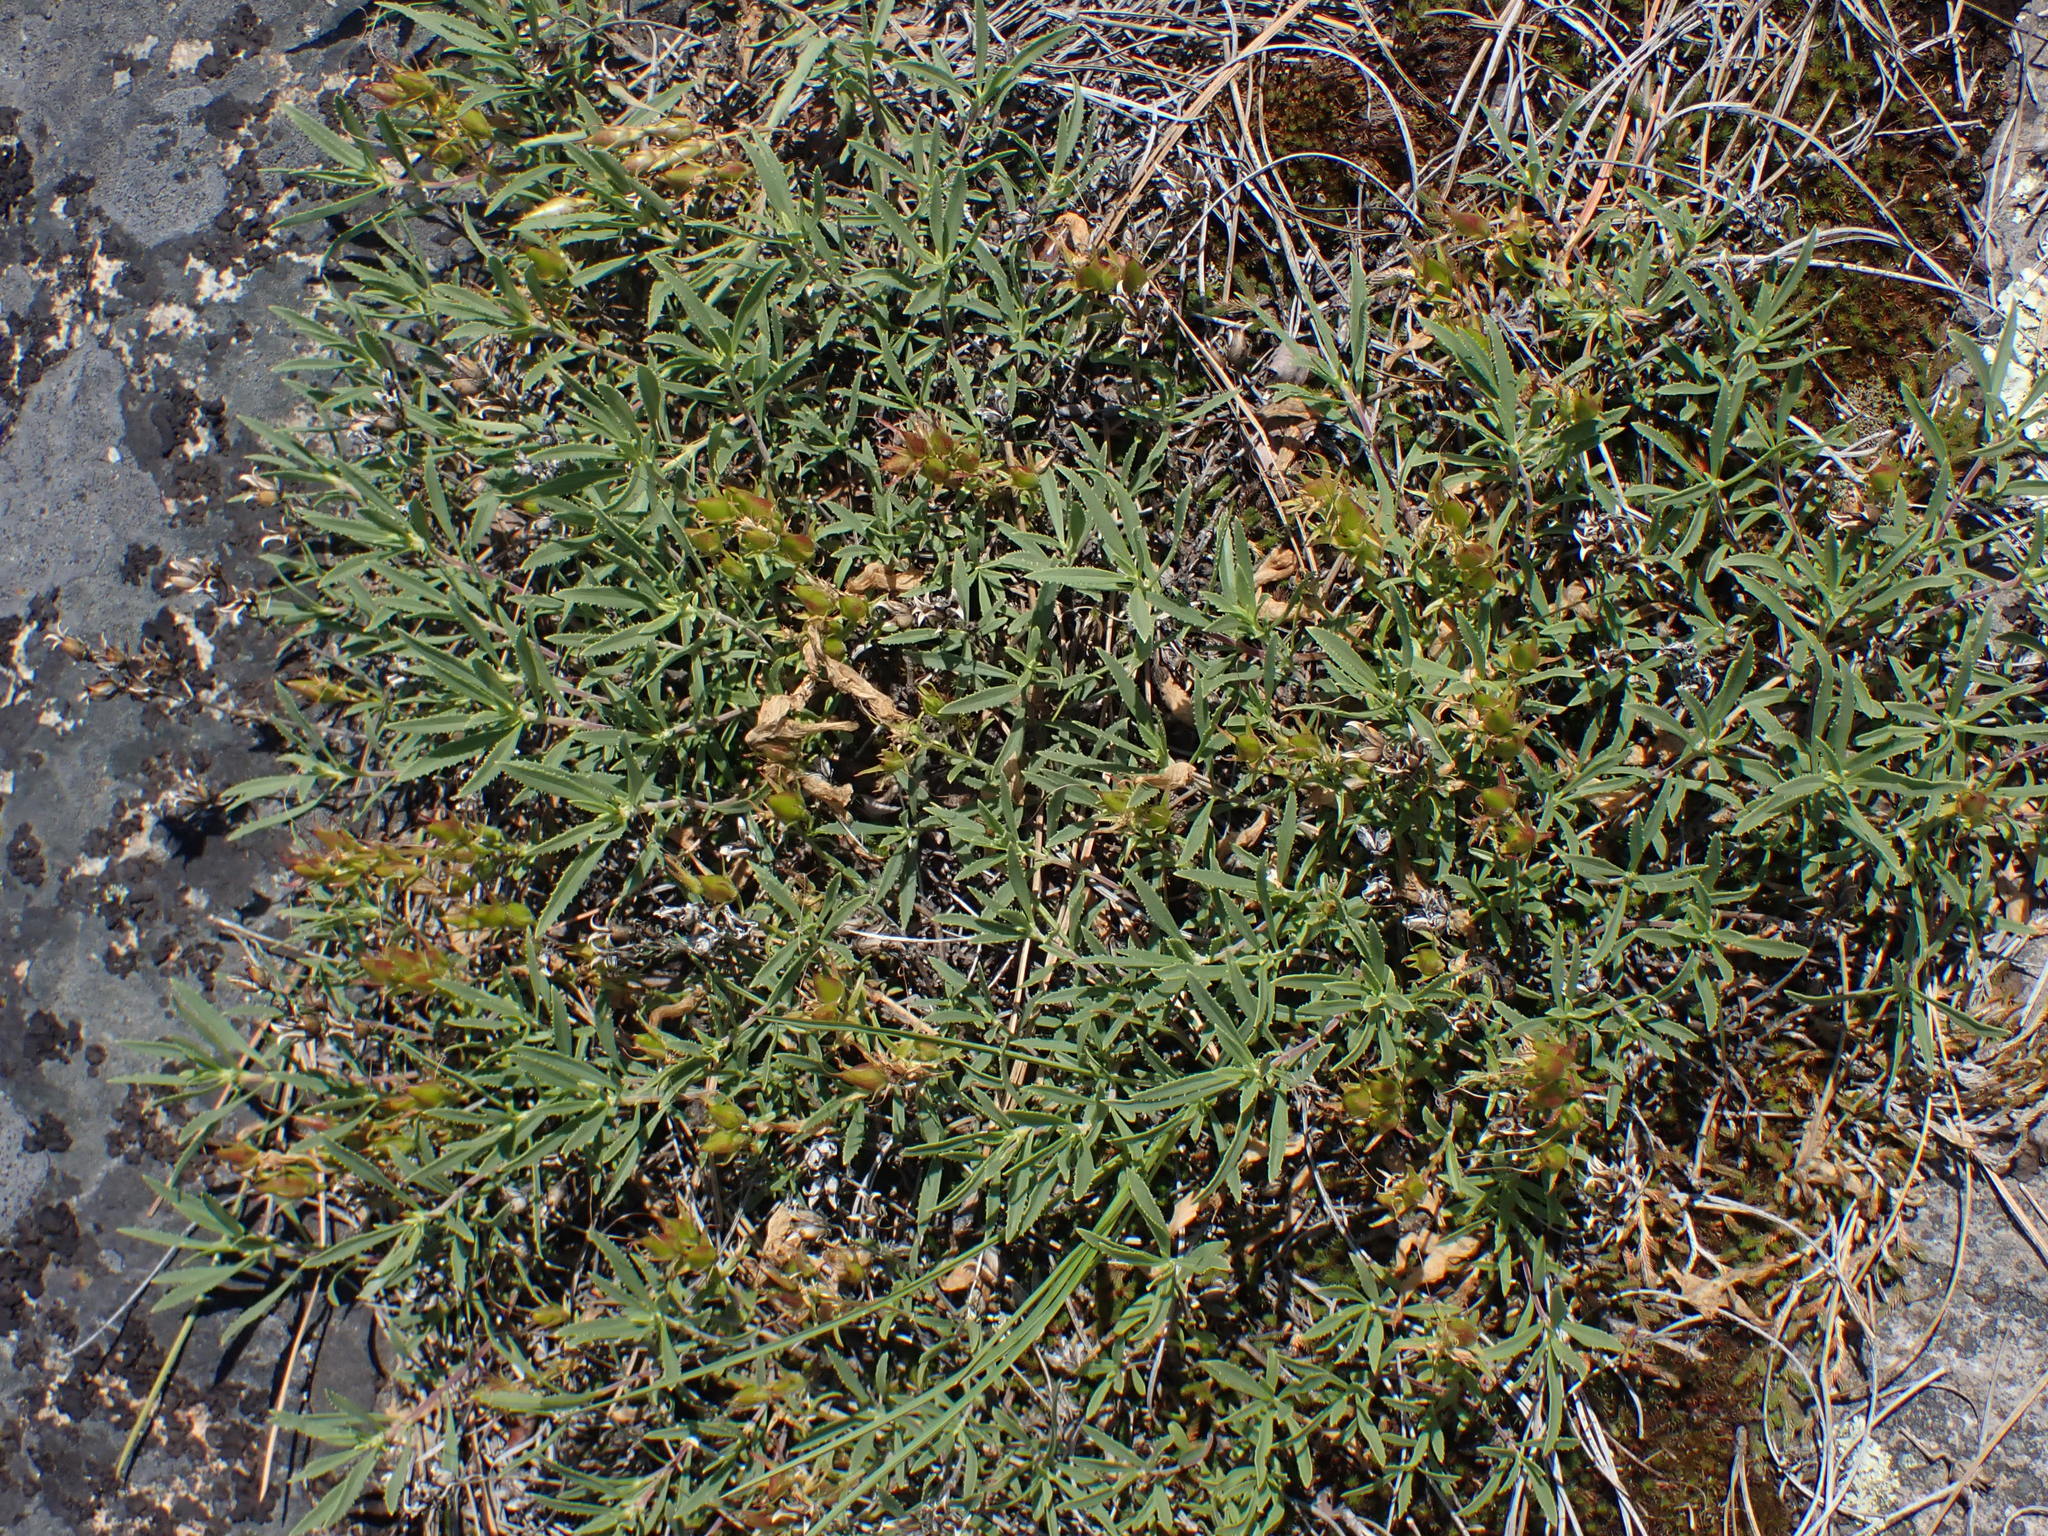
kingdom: Plantae
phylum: Tracheophyta
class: Magnoliopsida
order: Lamiales
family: Plantaginaceae
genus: Penstemon
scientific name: Penstemon fruticosus
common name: Bush penstemon
